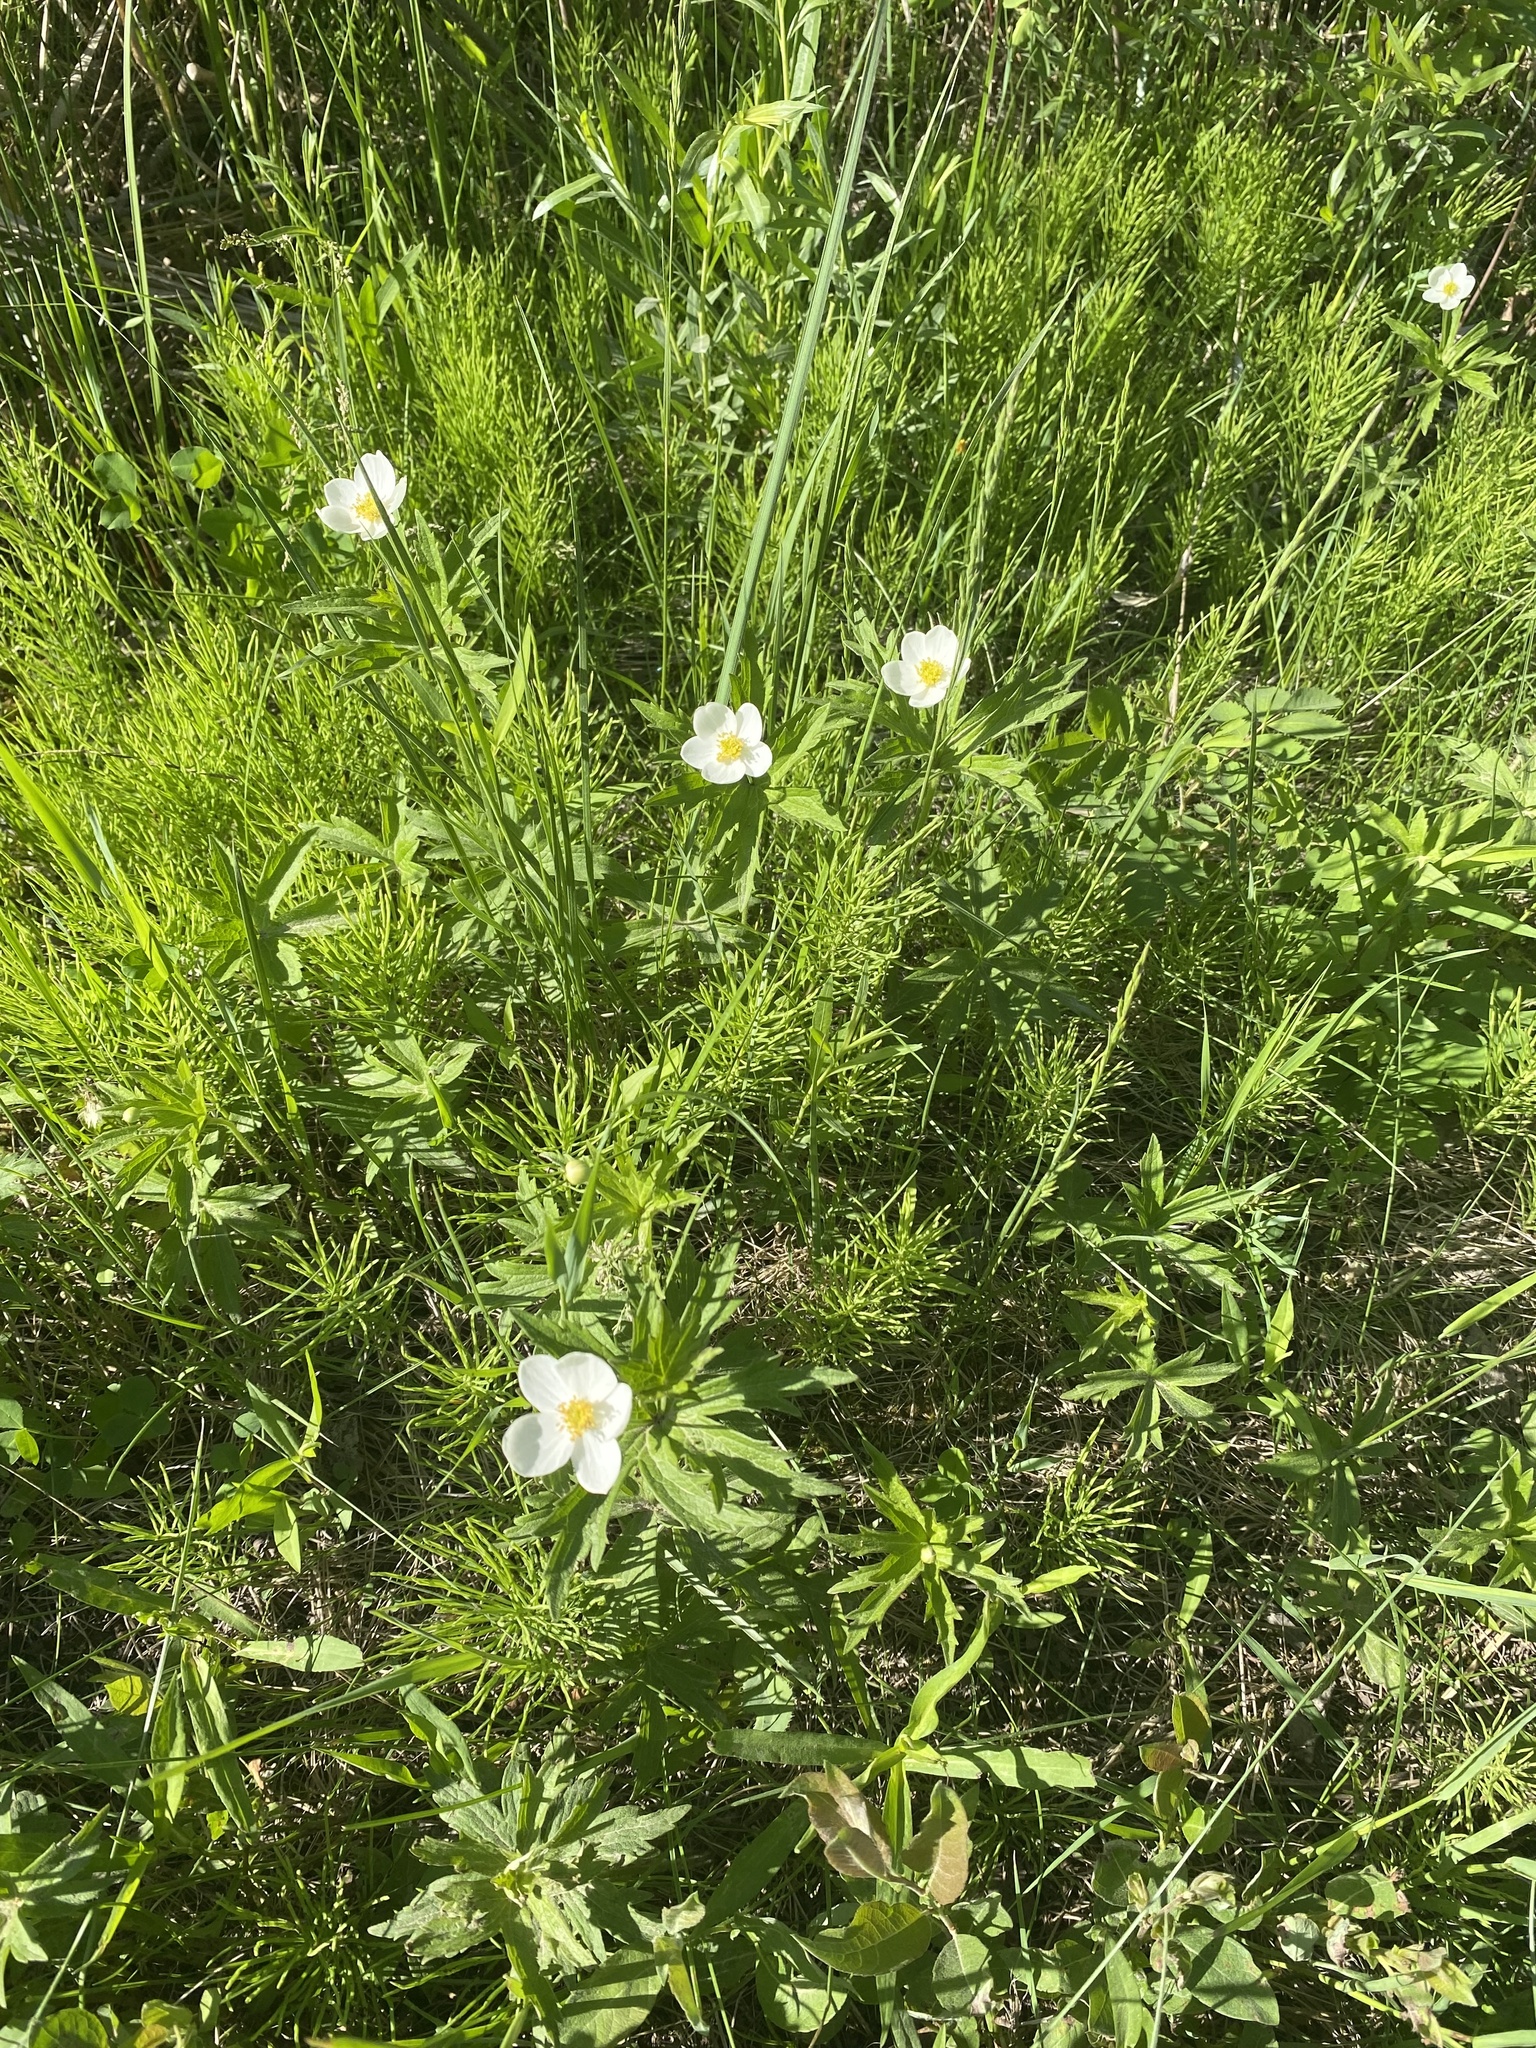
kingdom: Plantae
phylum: Tracheophyta
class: Magnoliopsida
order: Ranunculales
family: Ranunculaceae
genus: Anemonastrum
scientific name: Anemonastrum canadense
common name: Canada anemone
